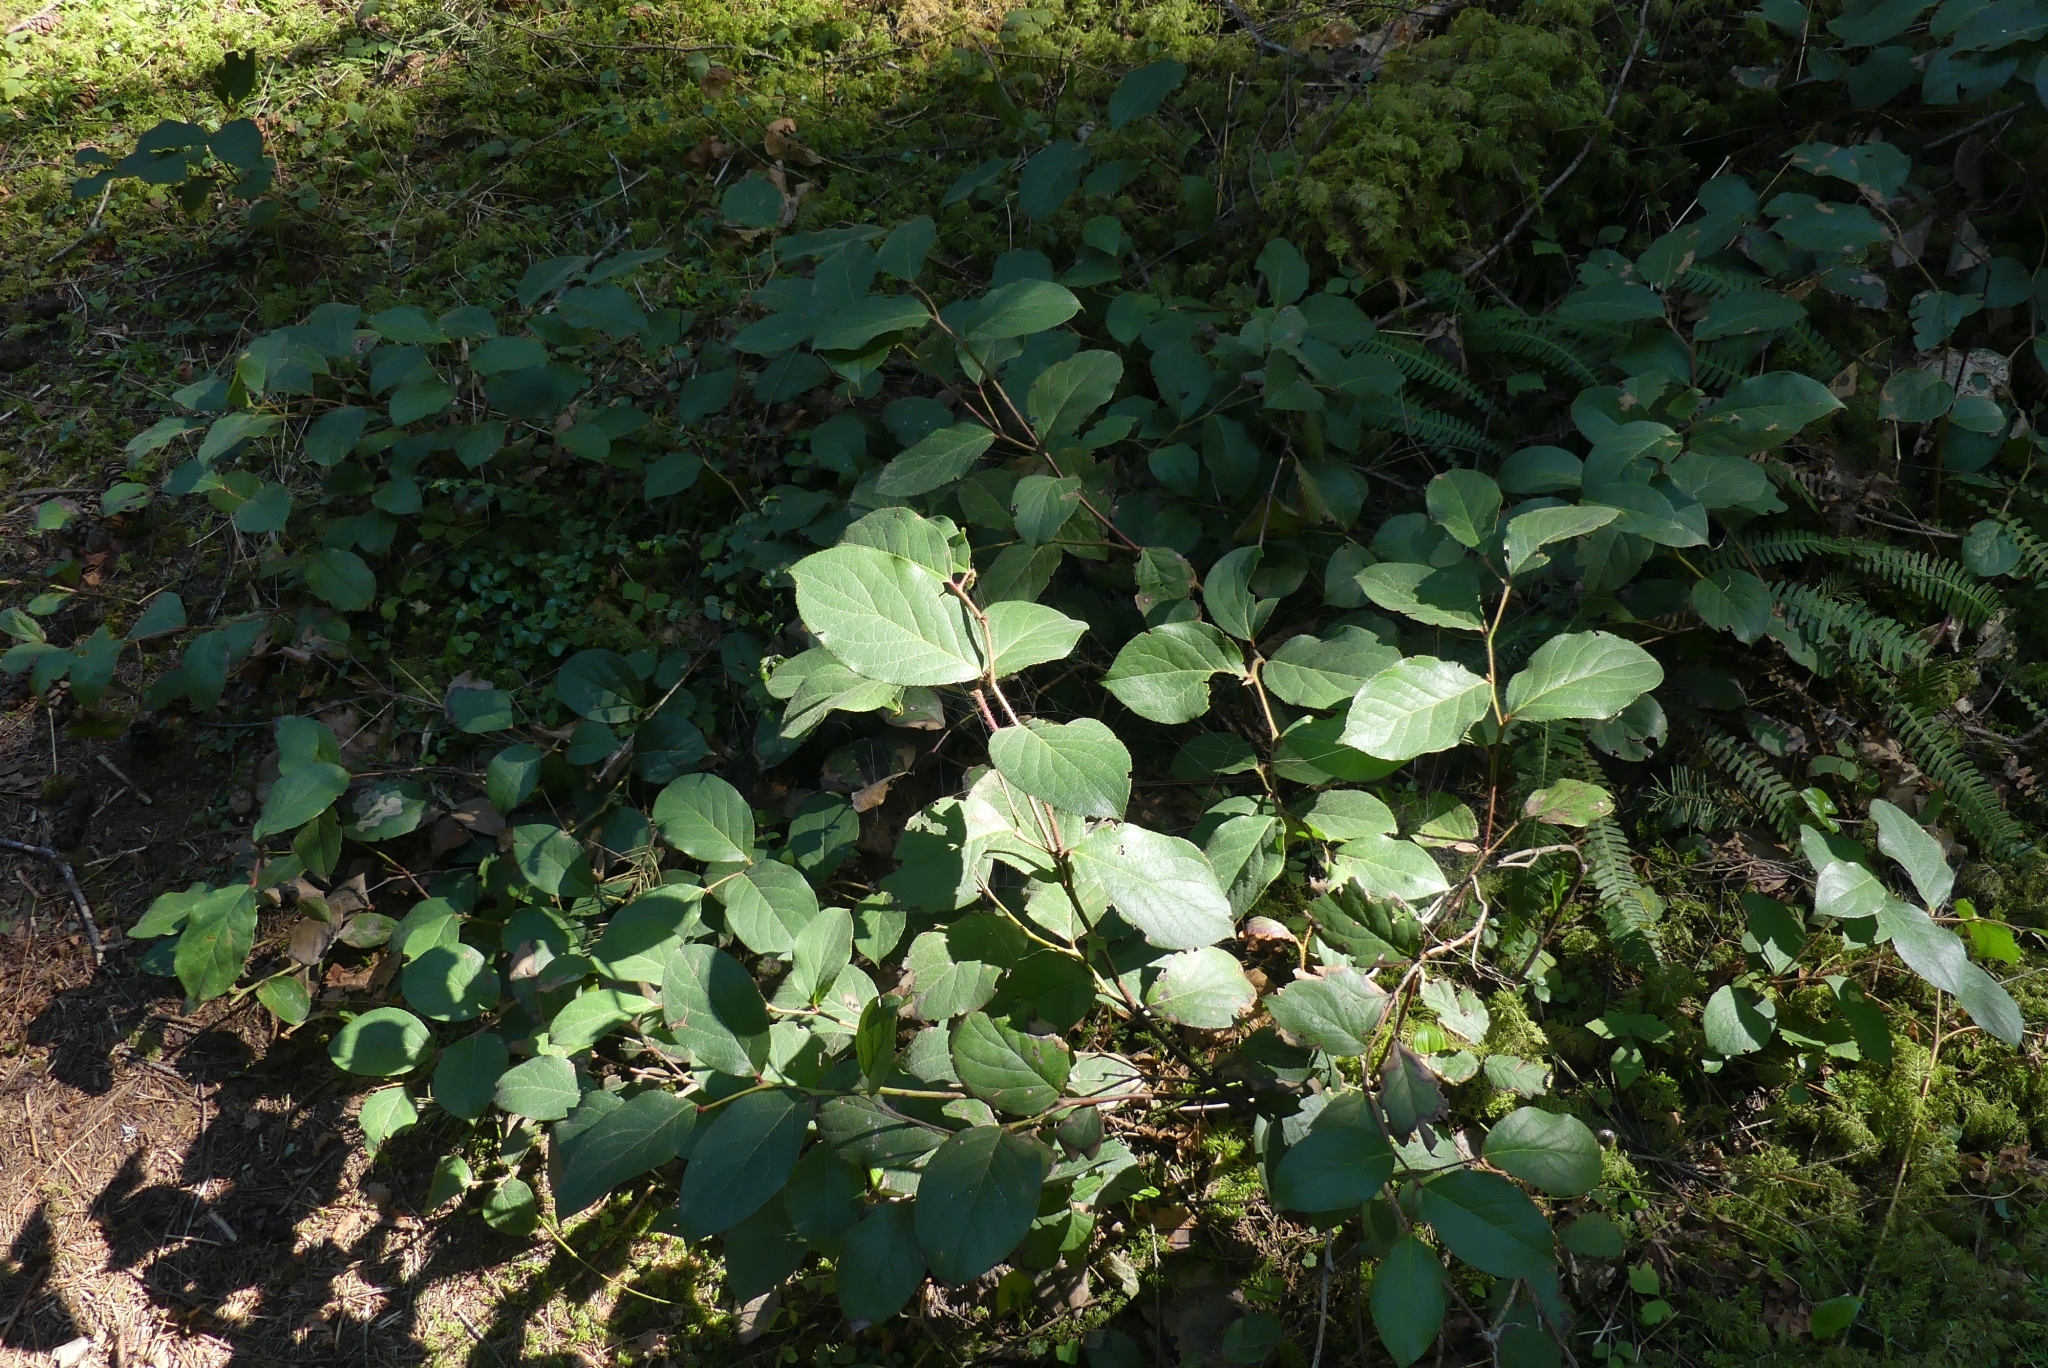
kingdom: Plantae
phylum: Tracheophyta
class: Magnoliopsida
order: Ericales
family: Ericaceae
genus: Gaultheria
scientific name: Gaultheria shallon
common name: Shallon
